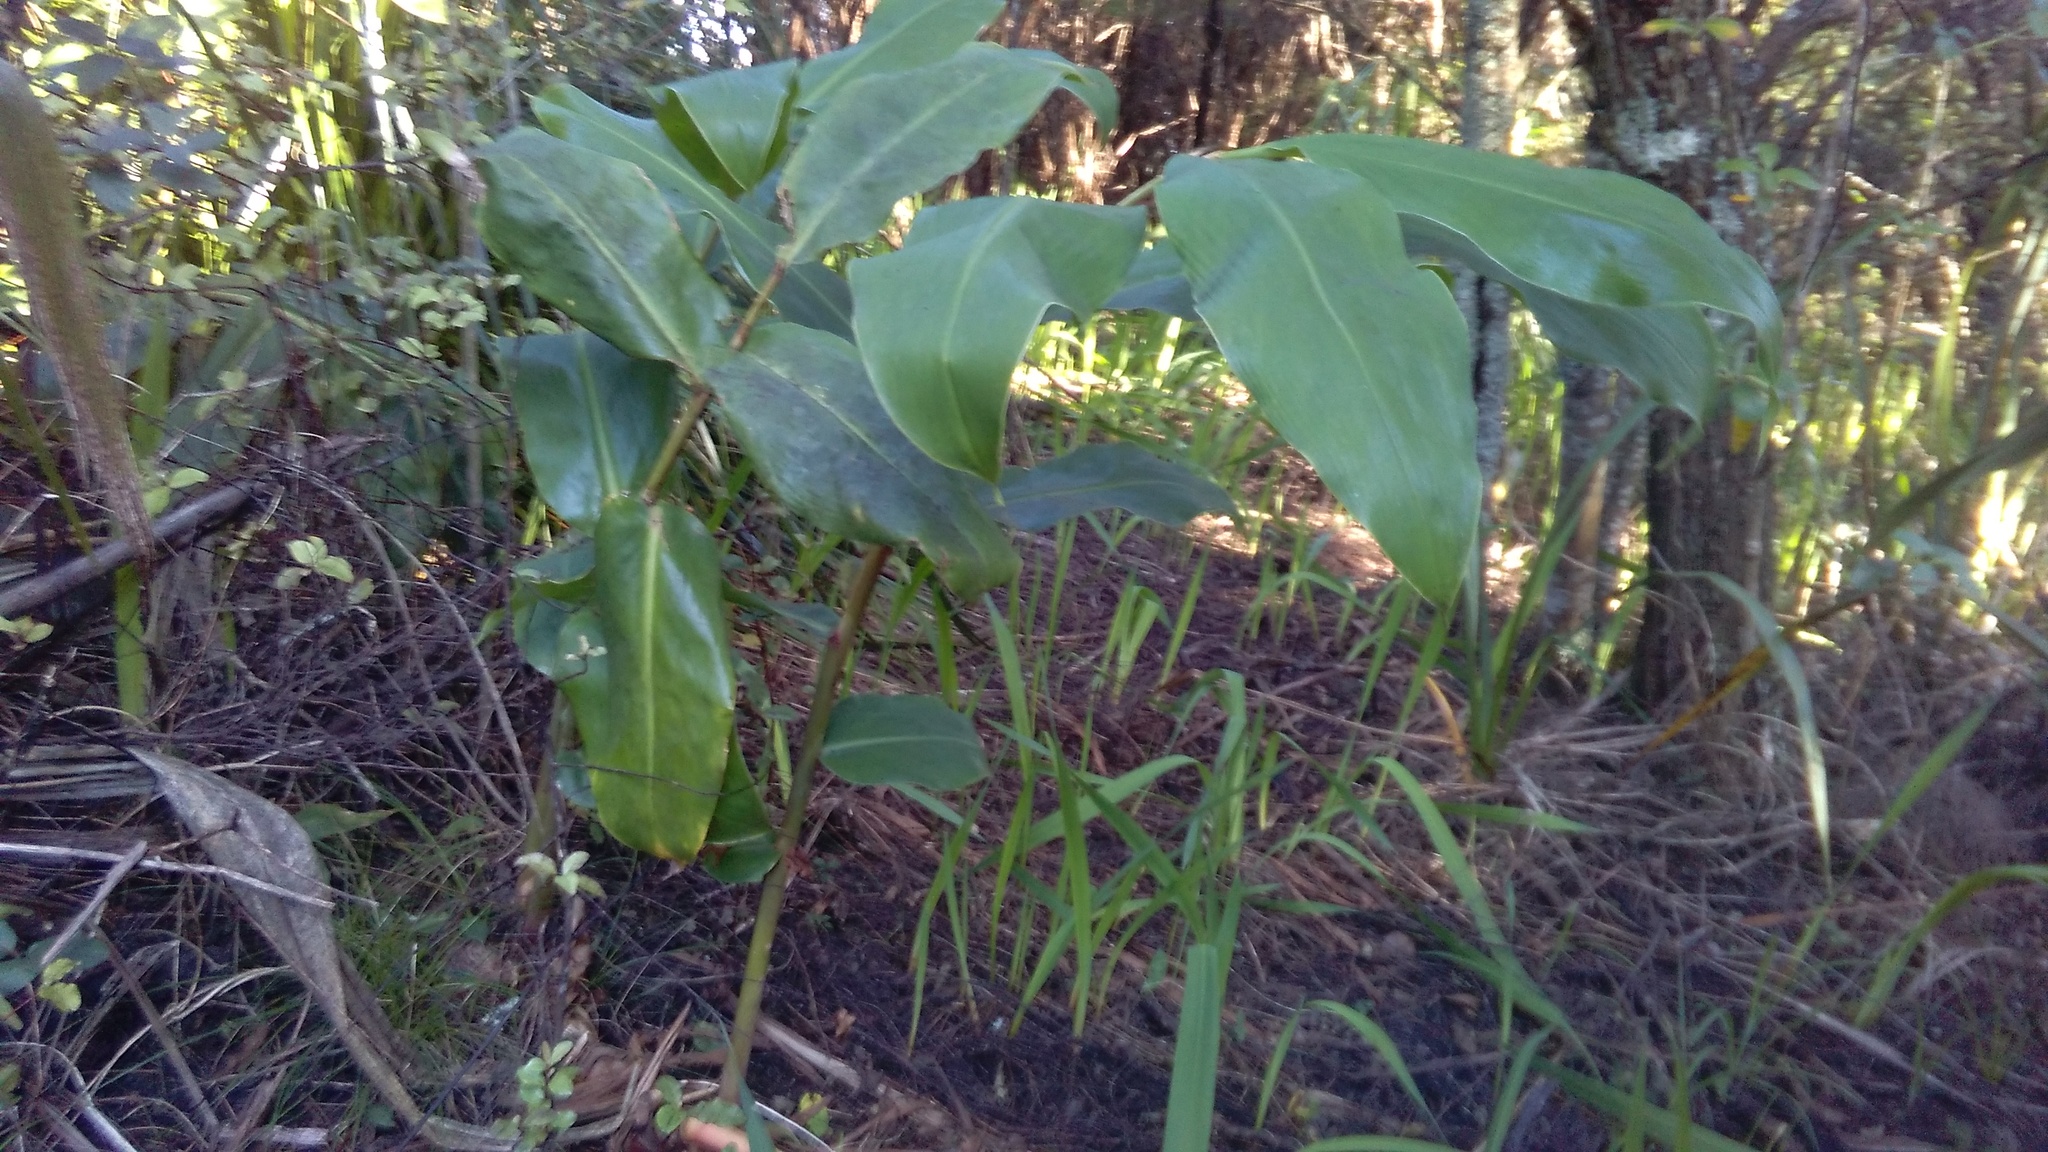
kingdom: Plantae
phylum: Tracheophyta
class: Liliopsida
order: Zingiberales
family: Zingiberaceae
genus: Hedychium
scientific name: Hedychium gardnerianum
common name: Himalayan ginger
